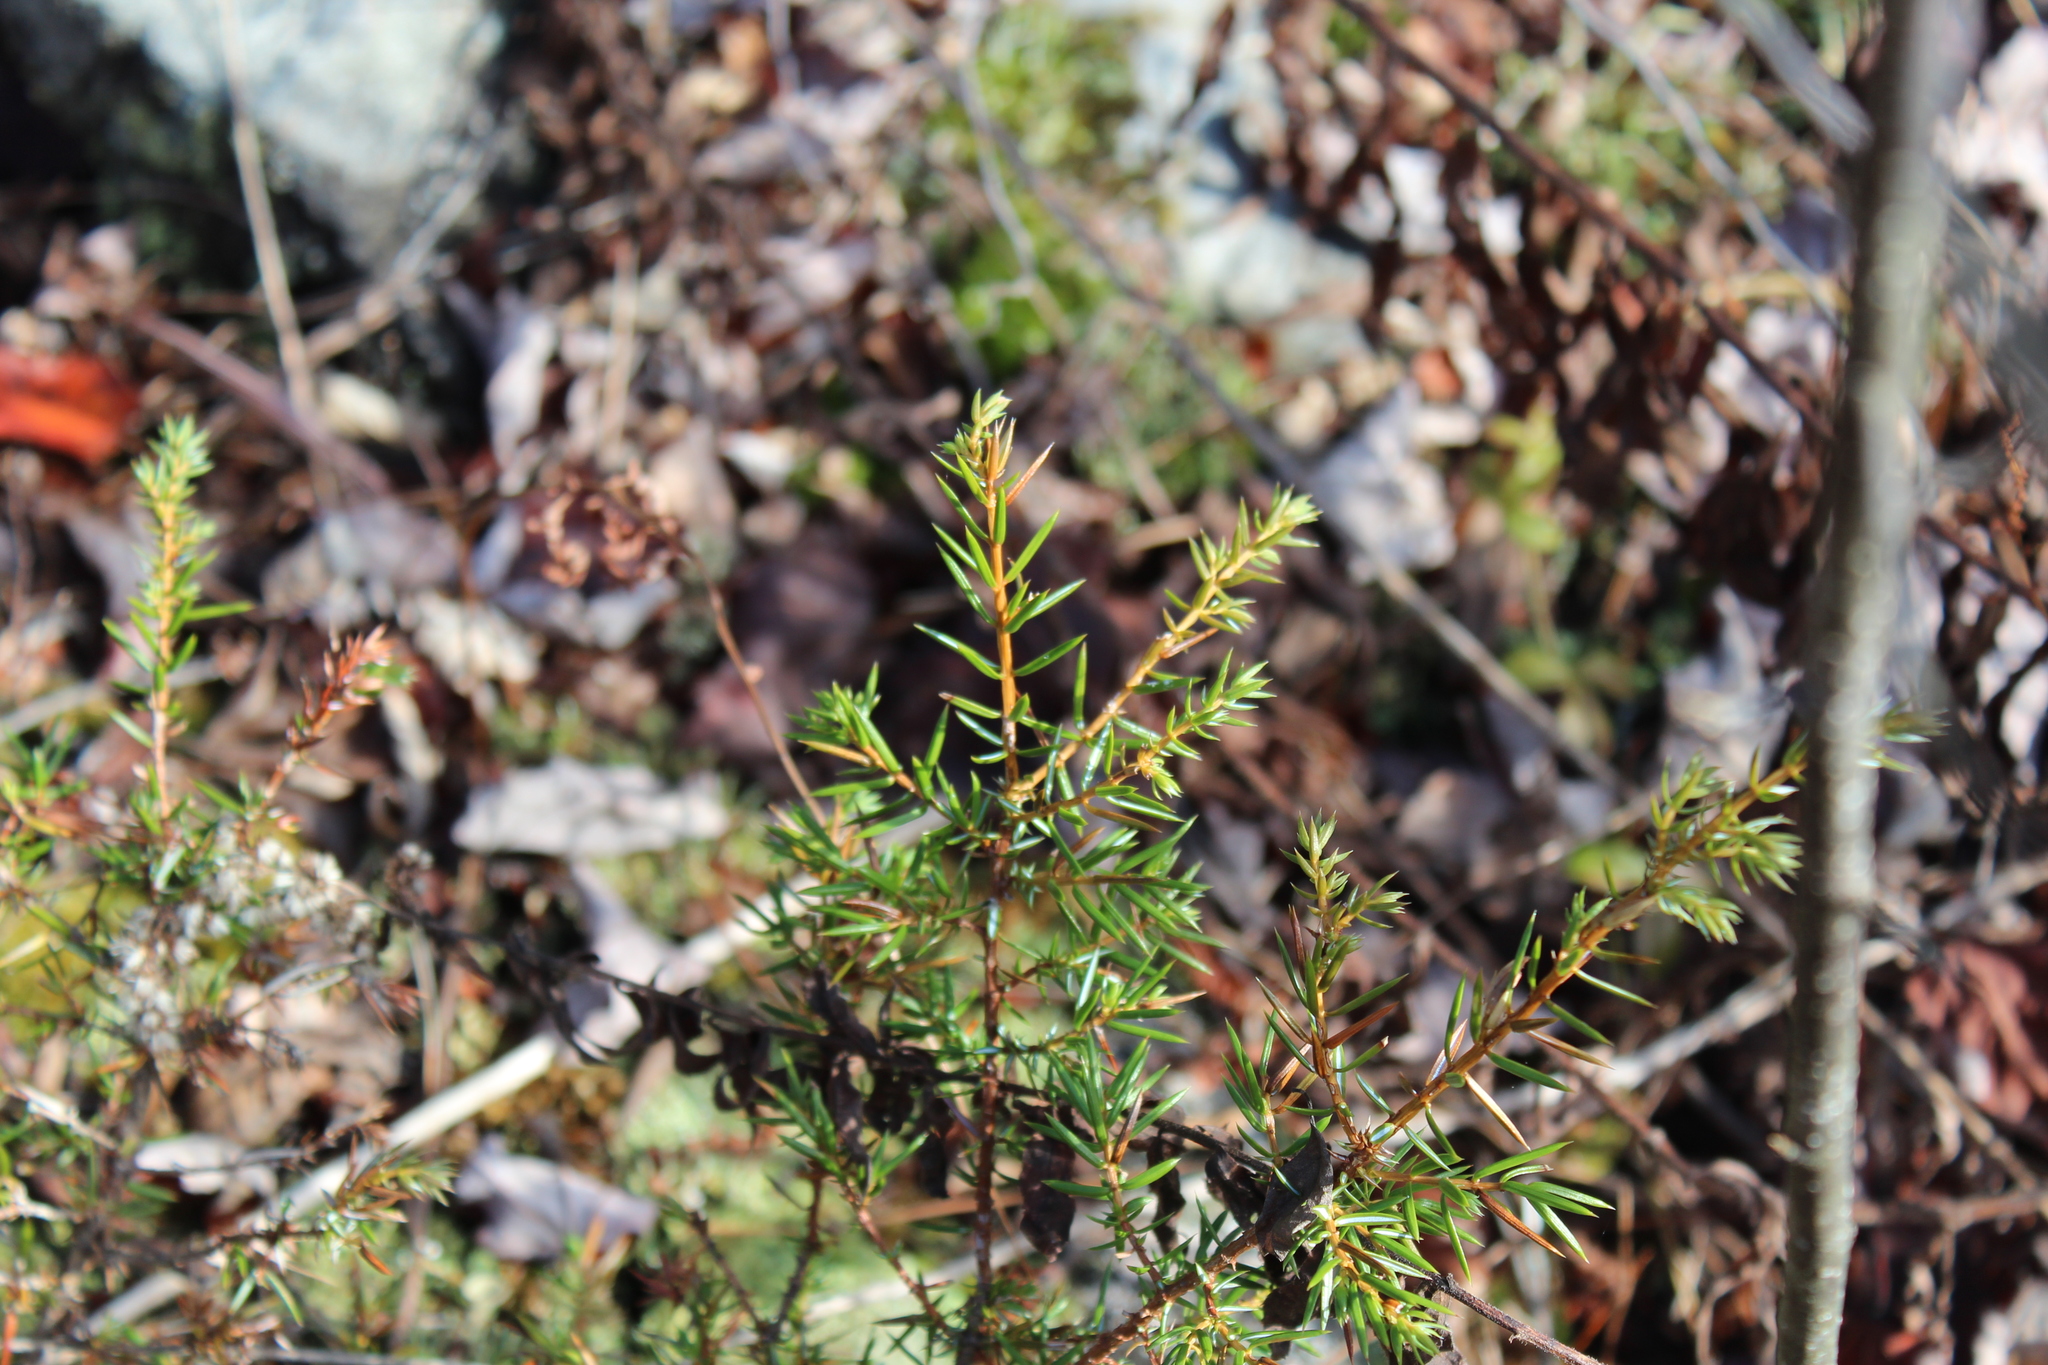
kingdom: Plantae
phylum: Tracheophyta
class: Pinopsida
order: Pinales
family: Cupressaceae
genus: Juniperus
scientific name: Juniperus communis
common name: Common juniper
